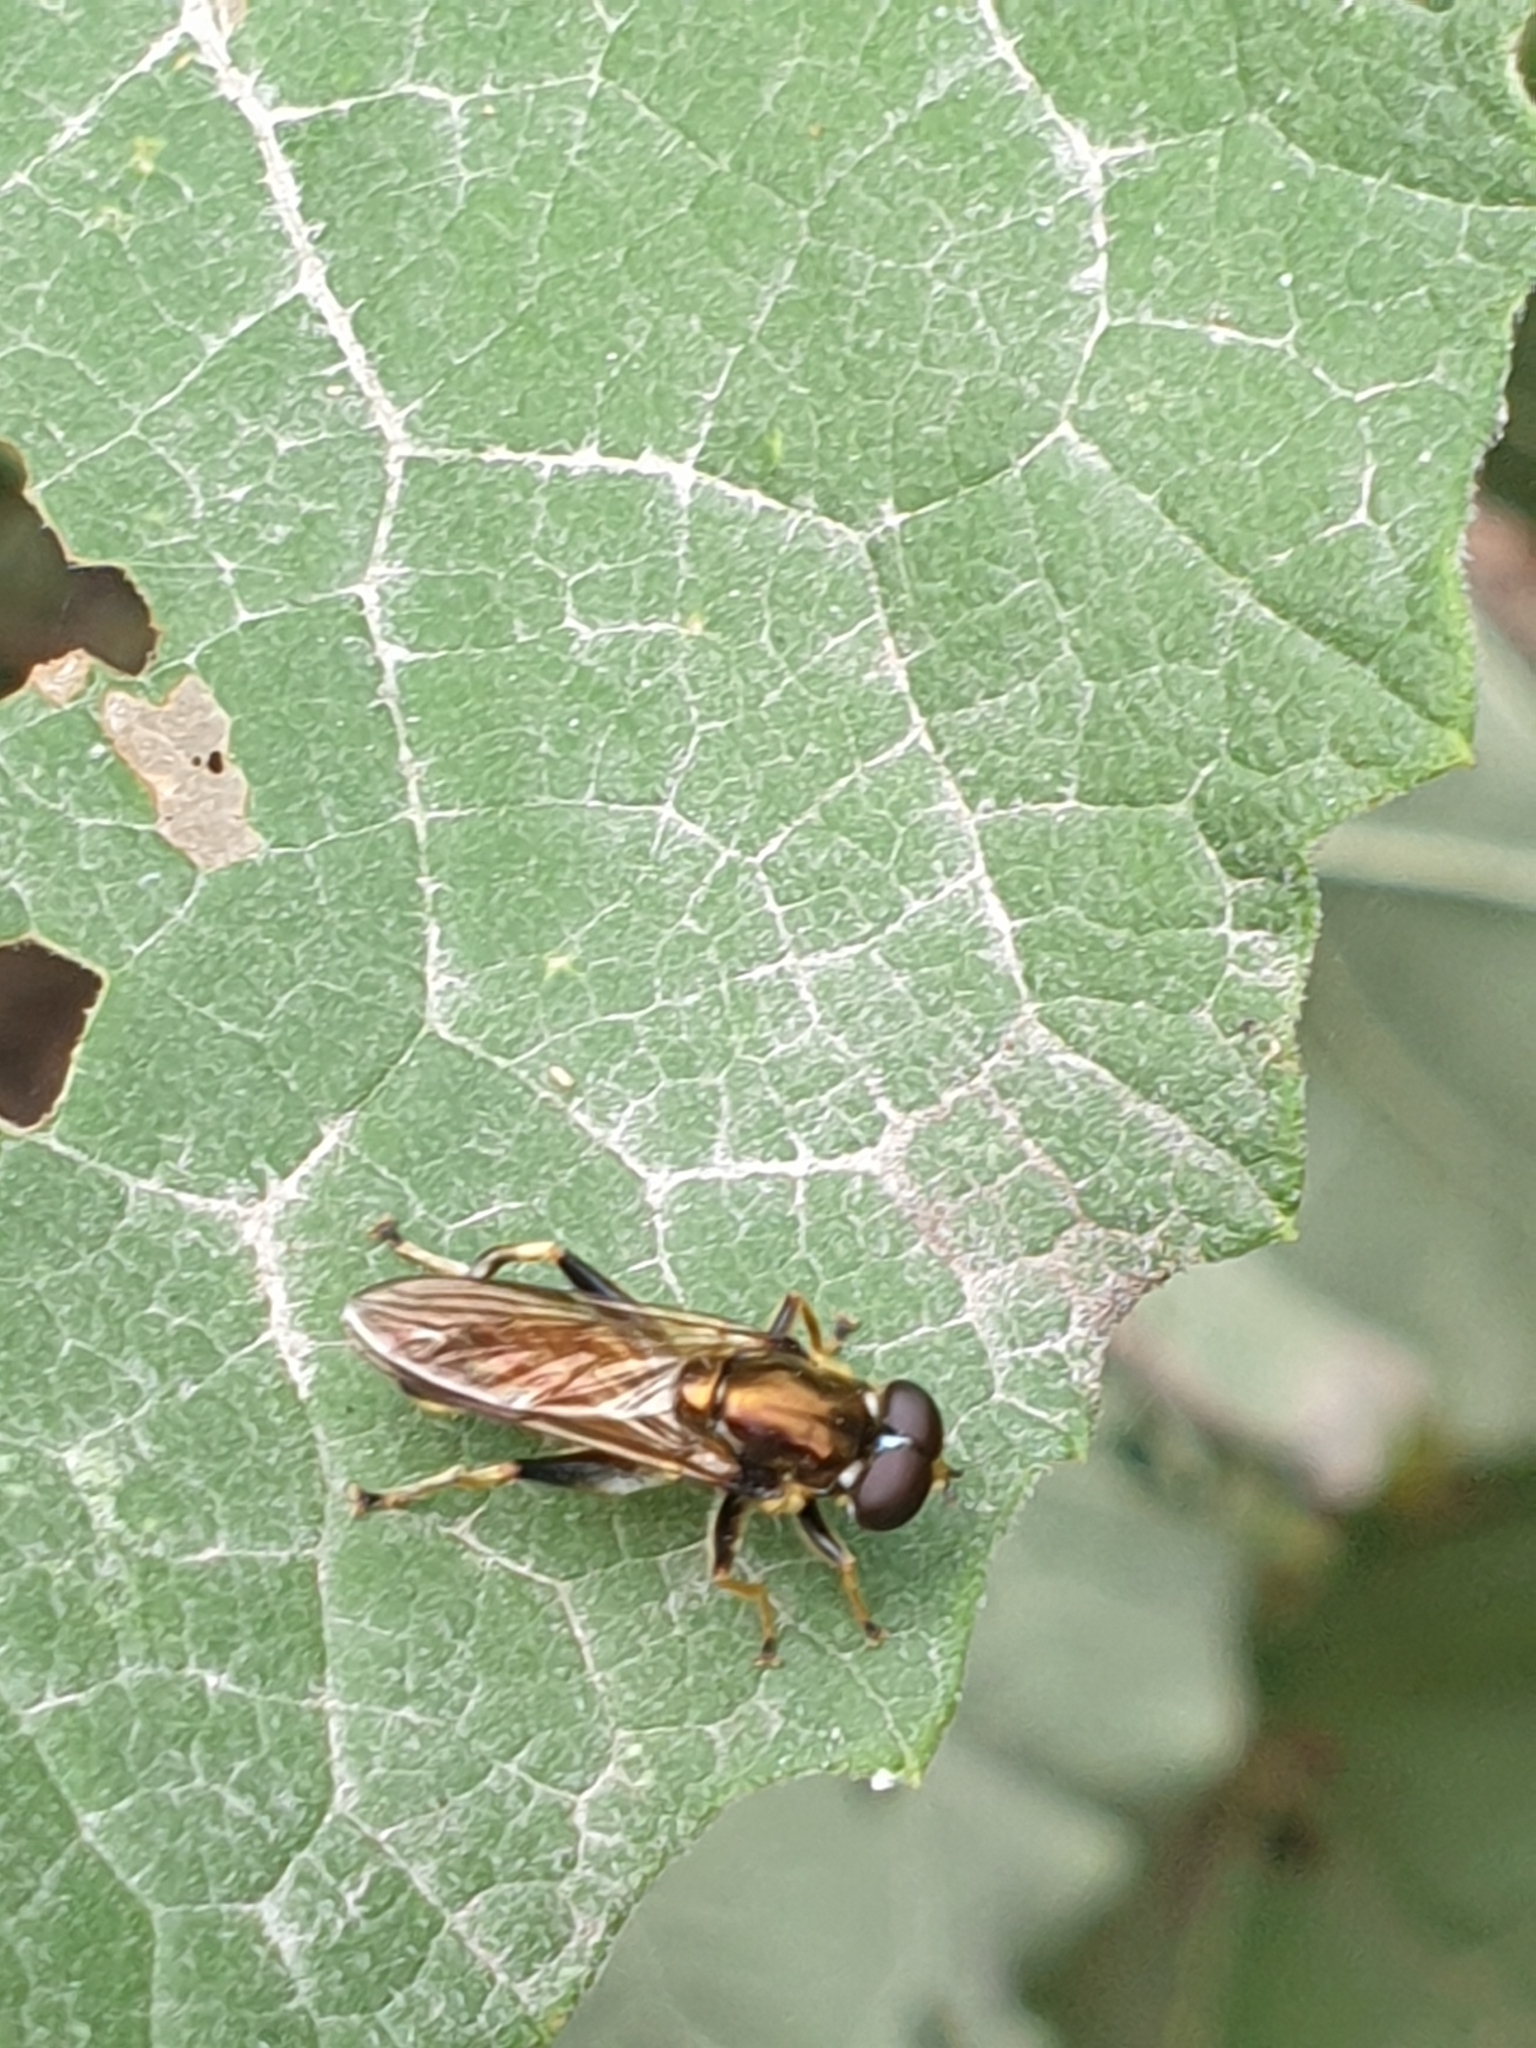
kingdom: Animalia
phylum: Arthropoda
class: Insecta
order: Diptera
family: Syrphidae
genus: Xylota
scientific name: Xylota segnis
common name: Brown-toed forest fly
